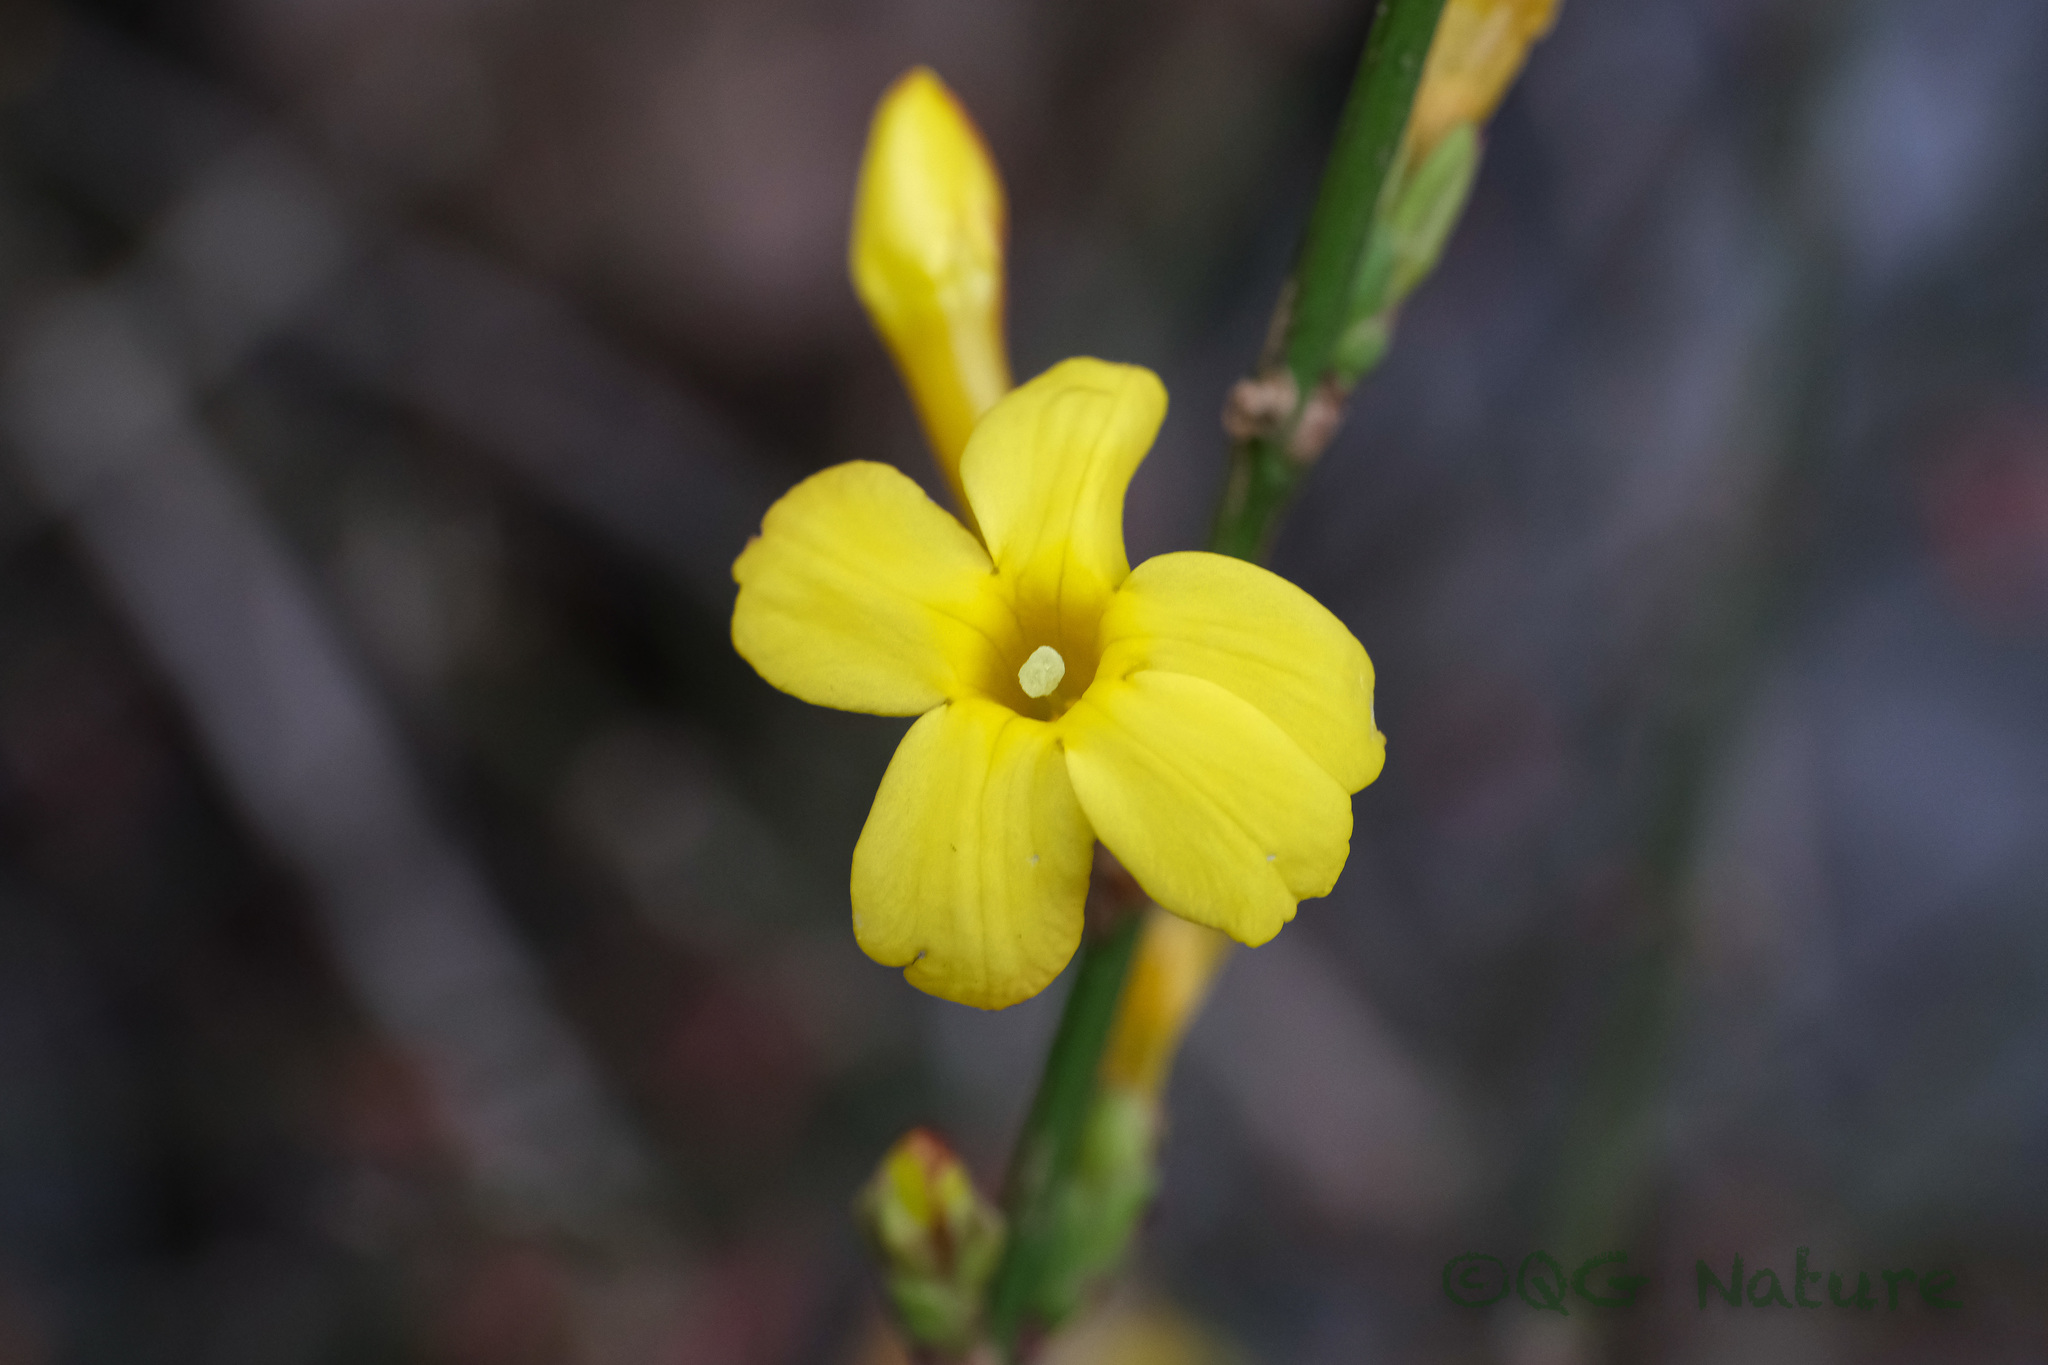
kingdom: Plantae
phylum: Tracheophyta
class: Magnoliopsida
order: Lamiales
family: Oleaceae
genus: Jasminum
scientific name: Jasminum nudiflorum
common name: Winter jasmine
